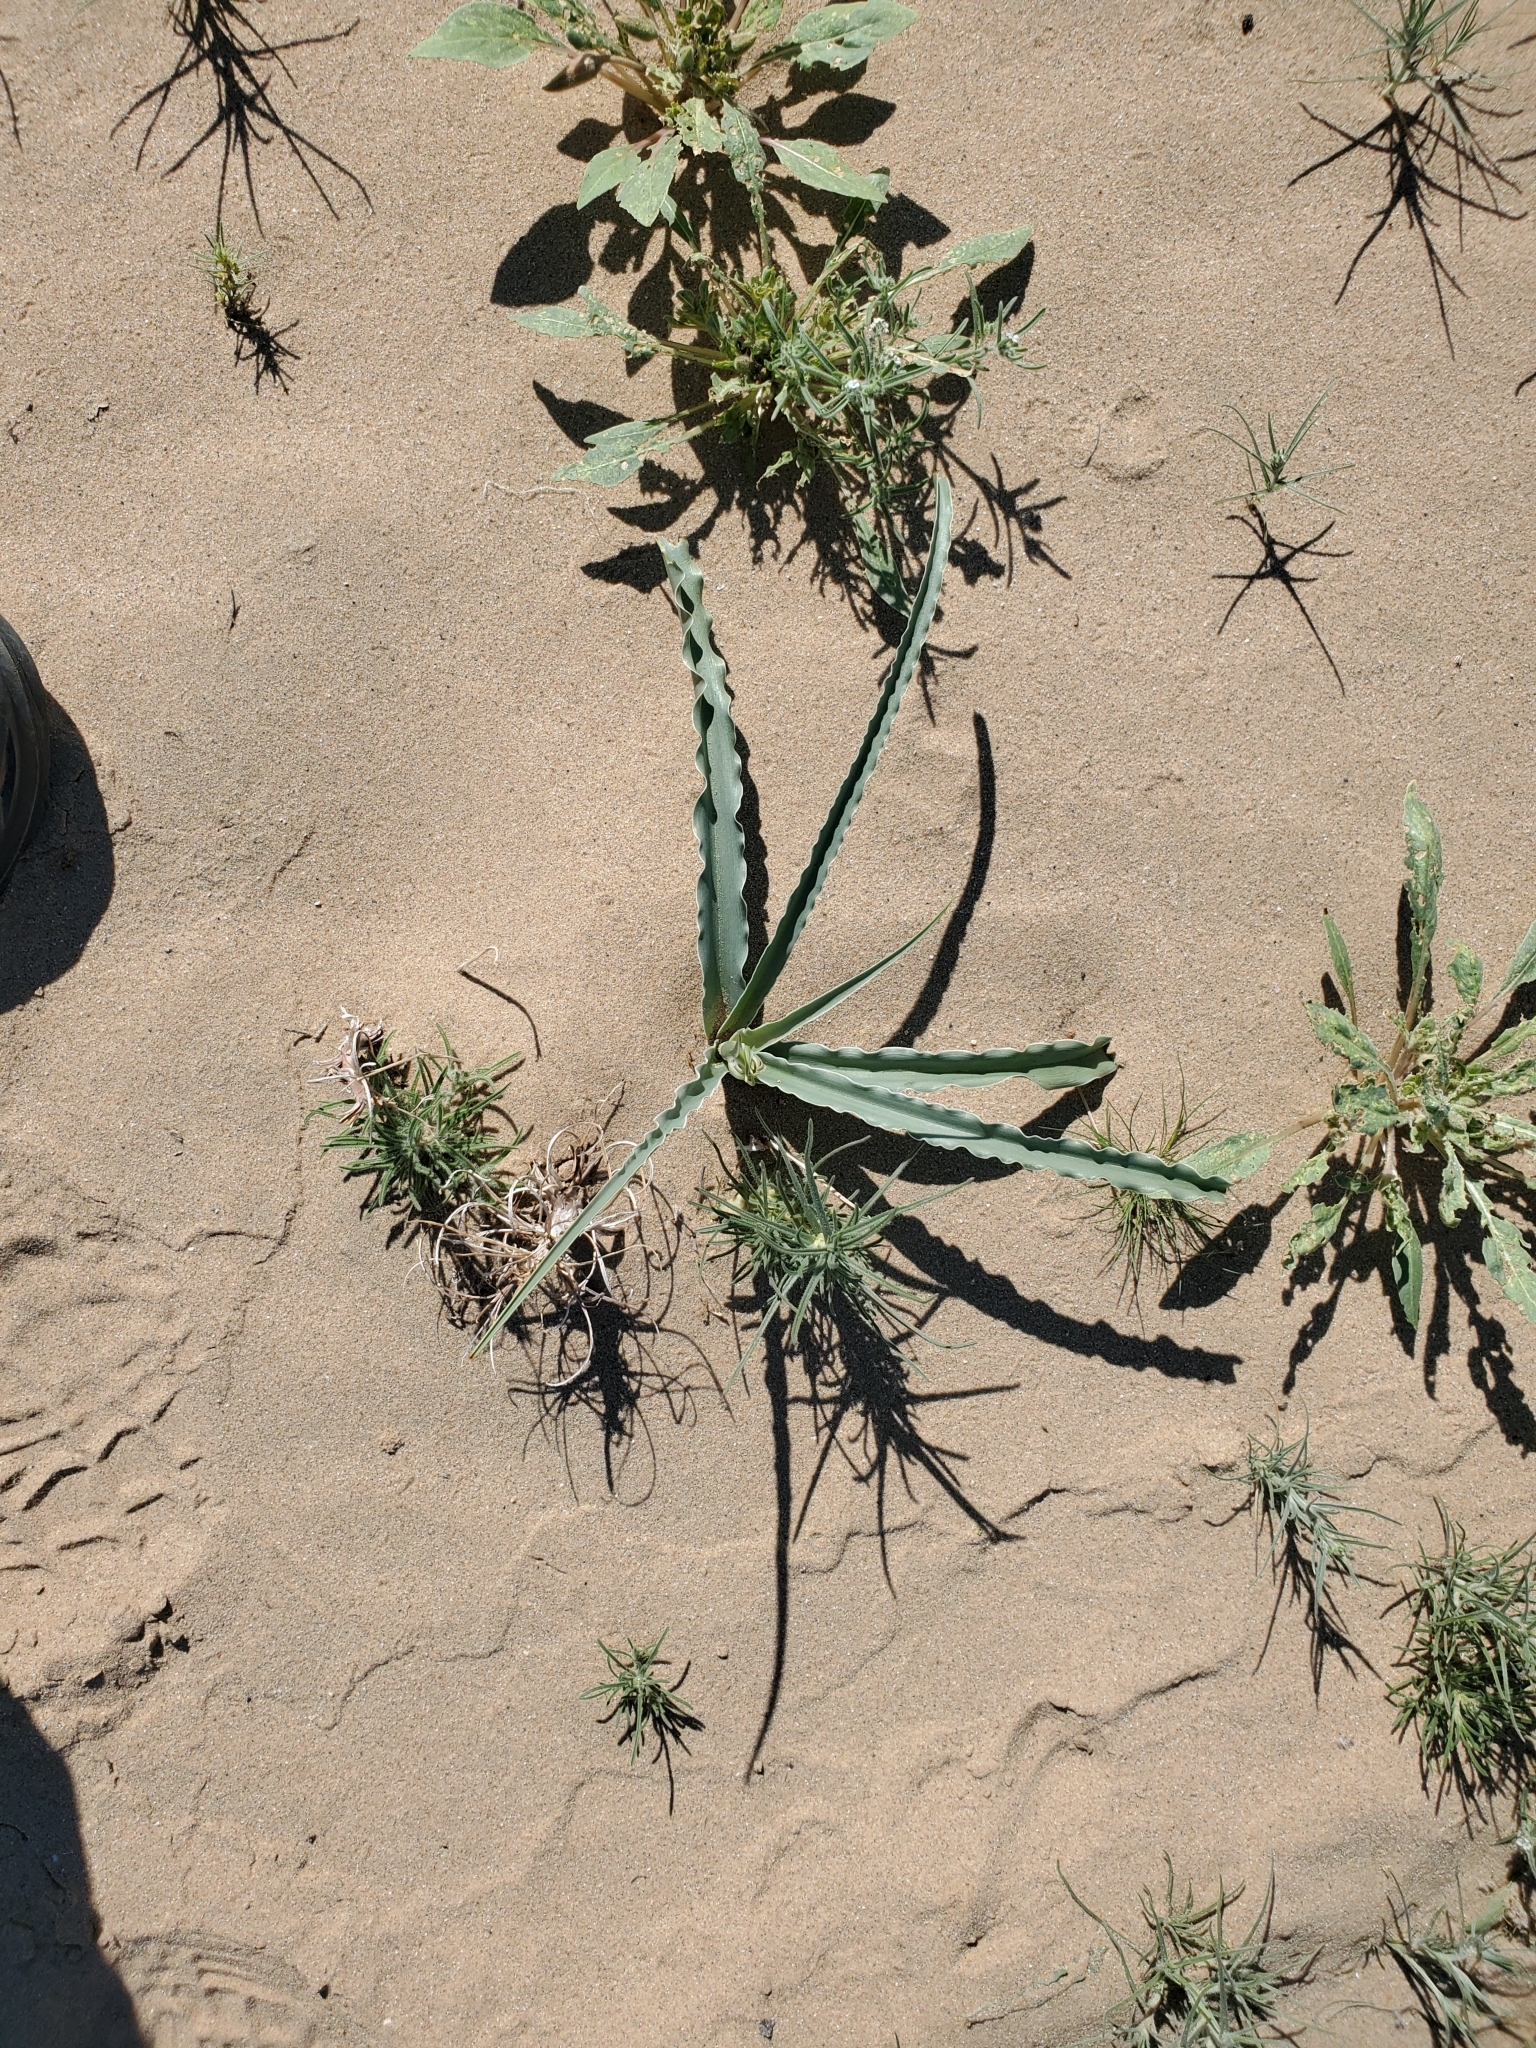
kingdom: Plantae
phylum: Tracheophyta
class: Liliopsida
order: Asparagales
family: Asparagaceae
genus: Hesperocallis
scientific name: Hesperocallis undulata
